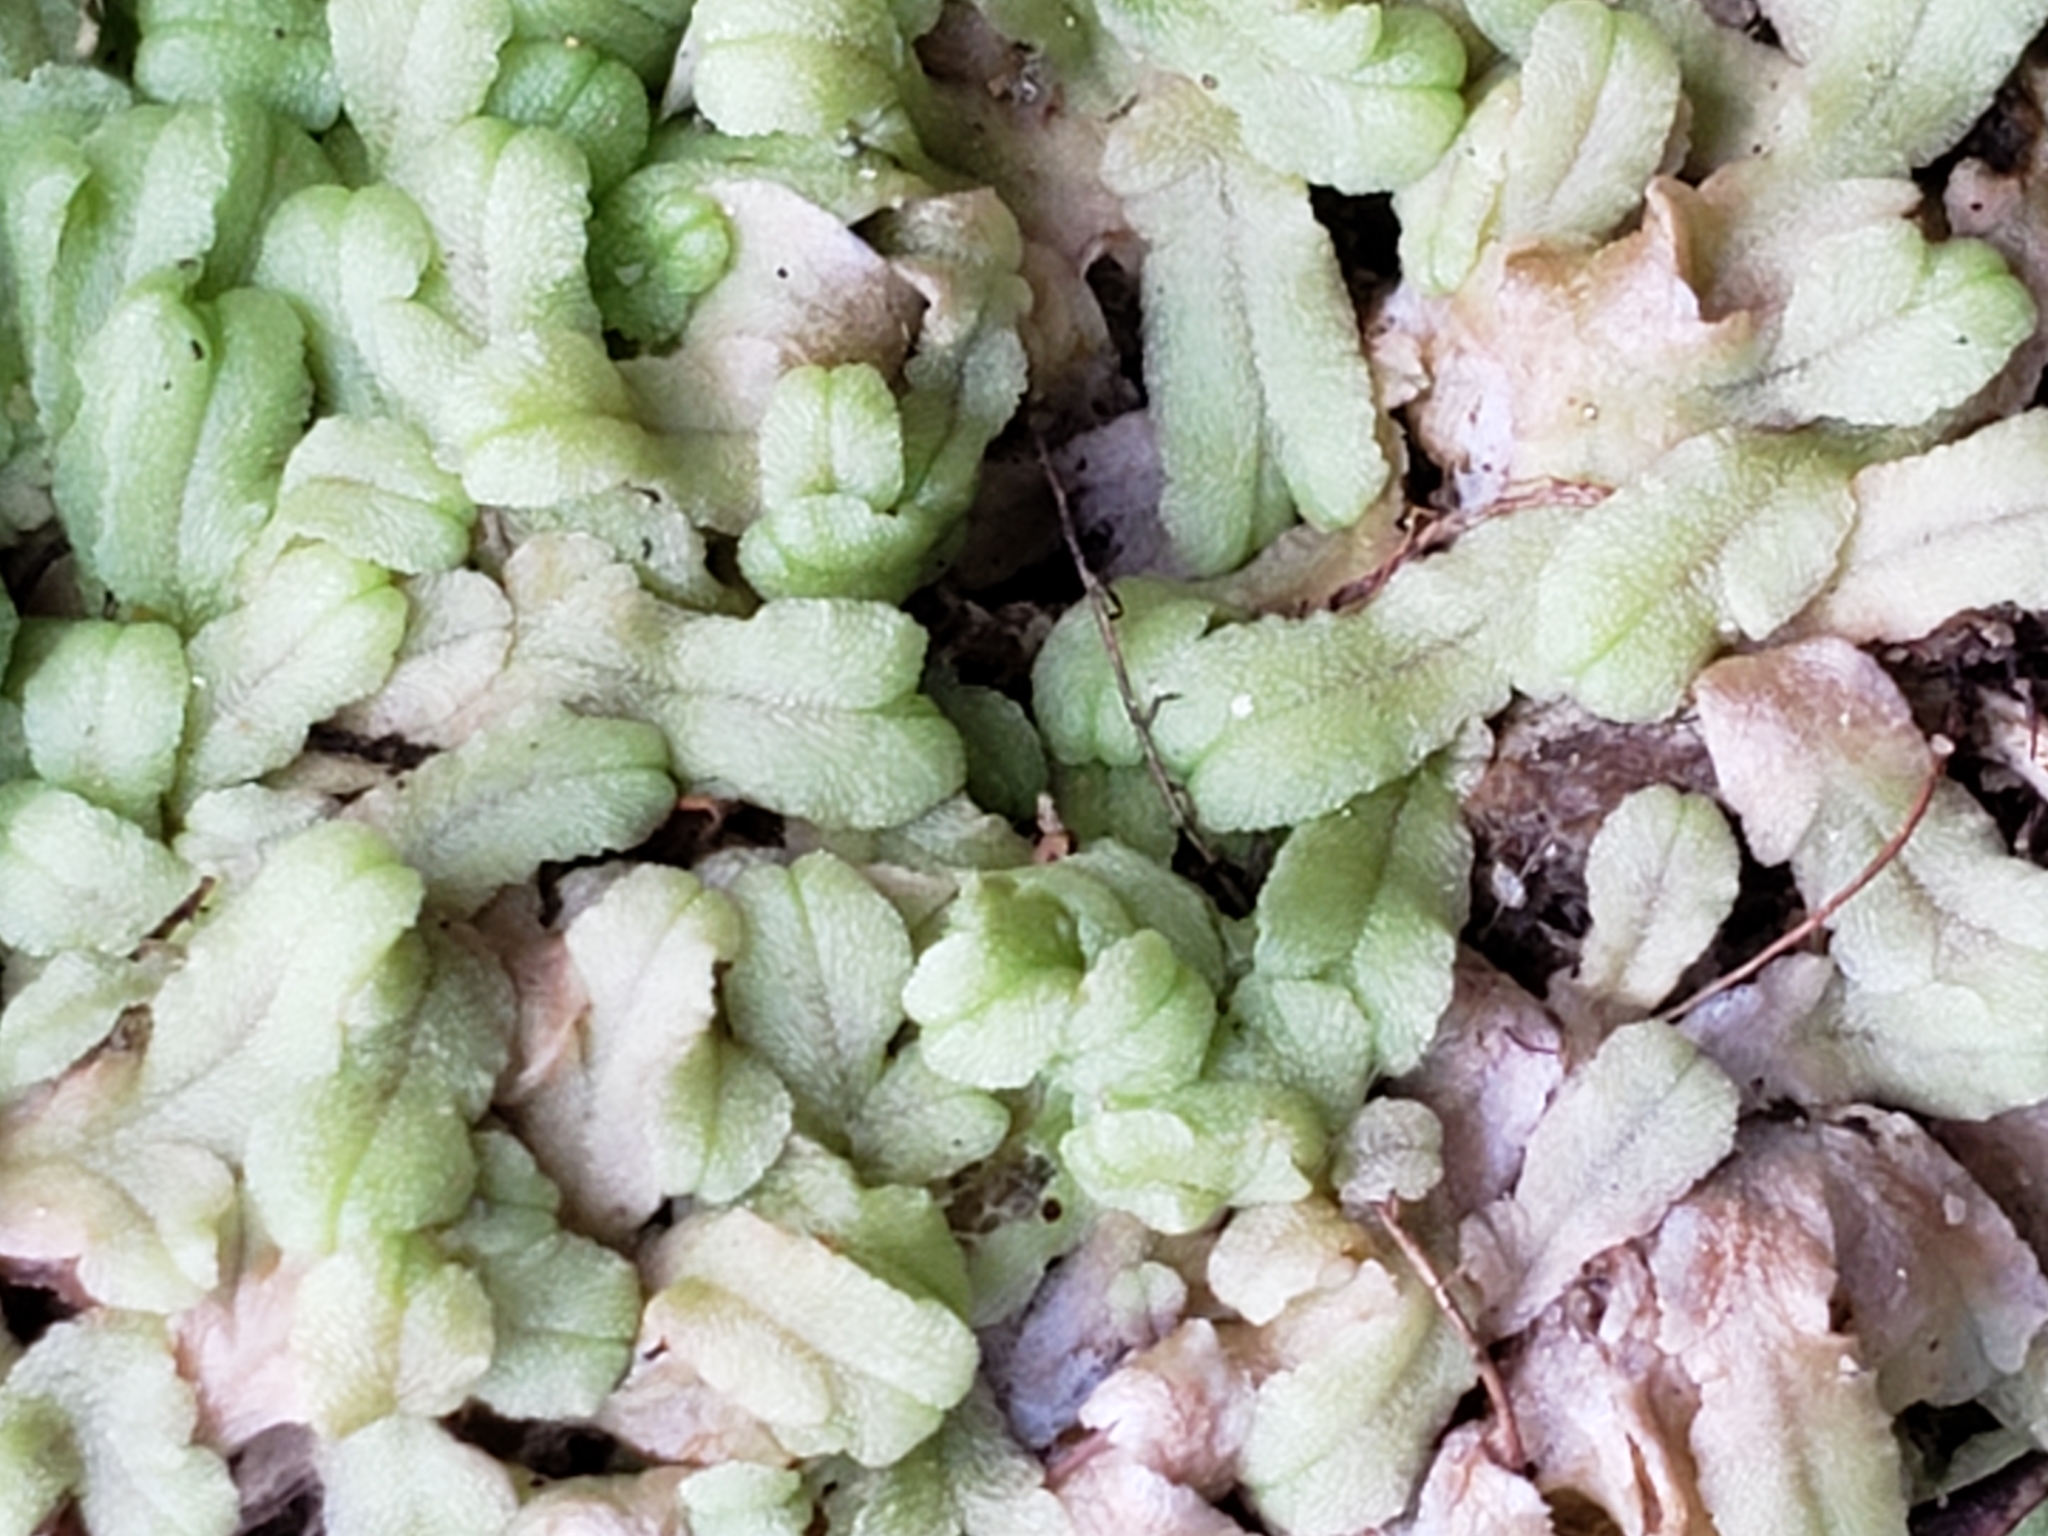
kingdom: Plantae
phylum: Marchantiophyta
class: Marchantiopsida
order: Marchantiales
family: Ricciaceae
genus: Ricciocarpos
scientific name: Ricciocarpos natans
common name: Purple-fringed liverwort
